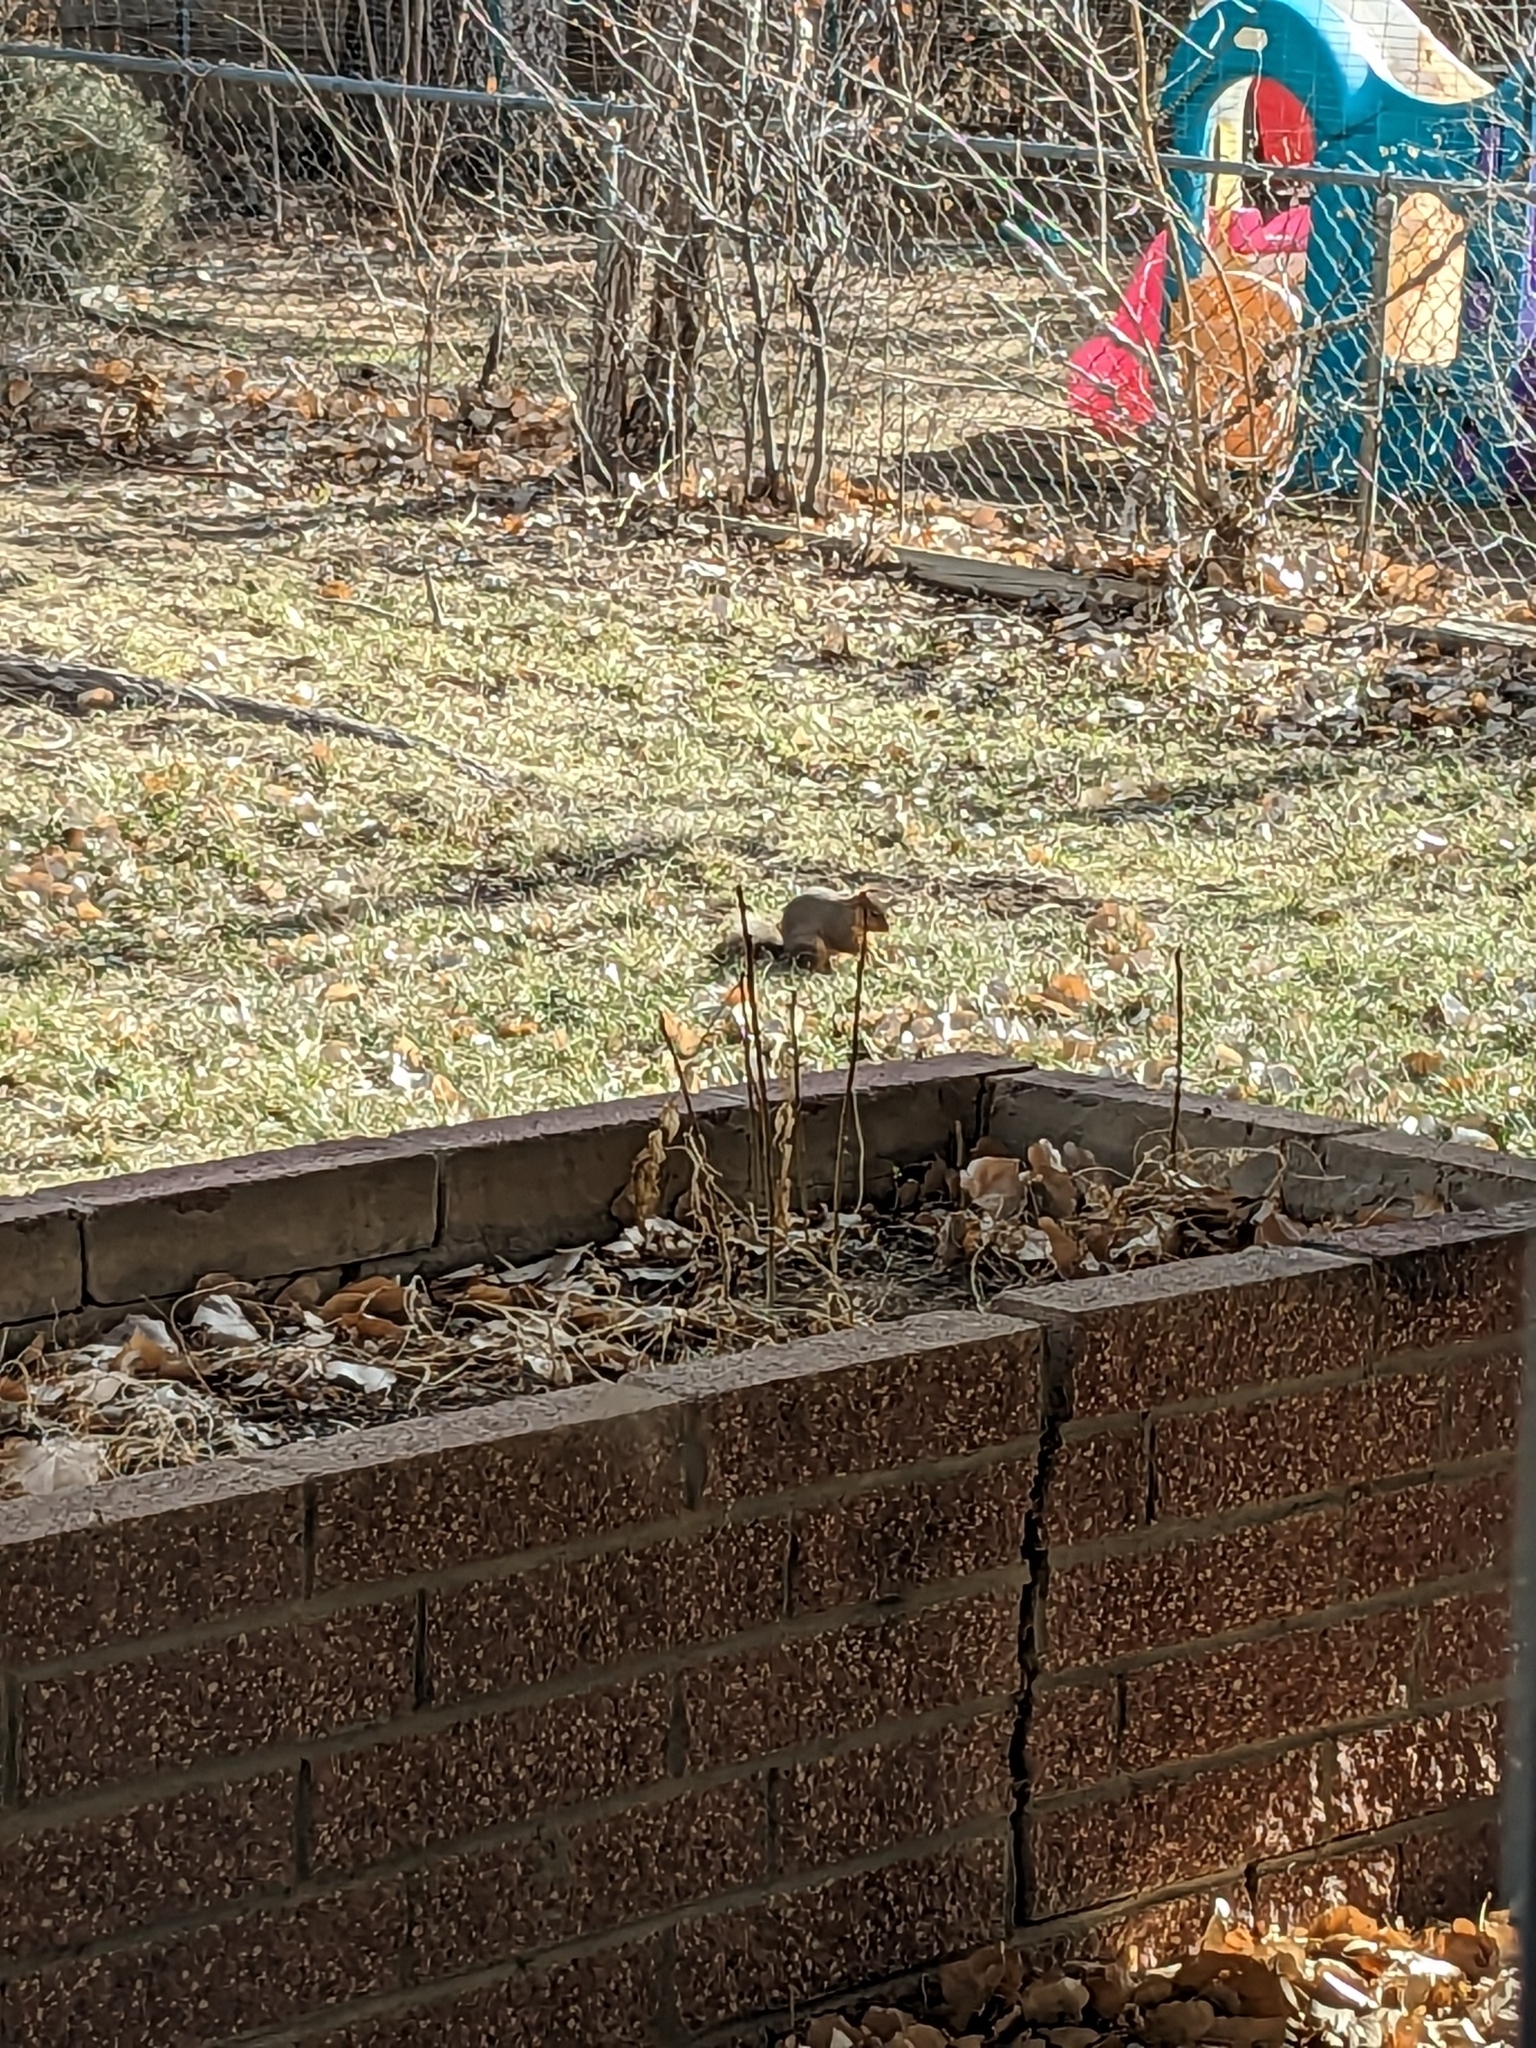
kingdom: Animalia
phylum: Chordata
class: Mammalia
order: Rodentia
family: Sciuridae
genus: Sciurus
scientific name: Sciurus niger
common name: Fox squirrel
